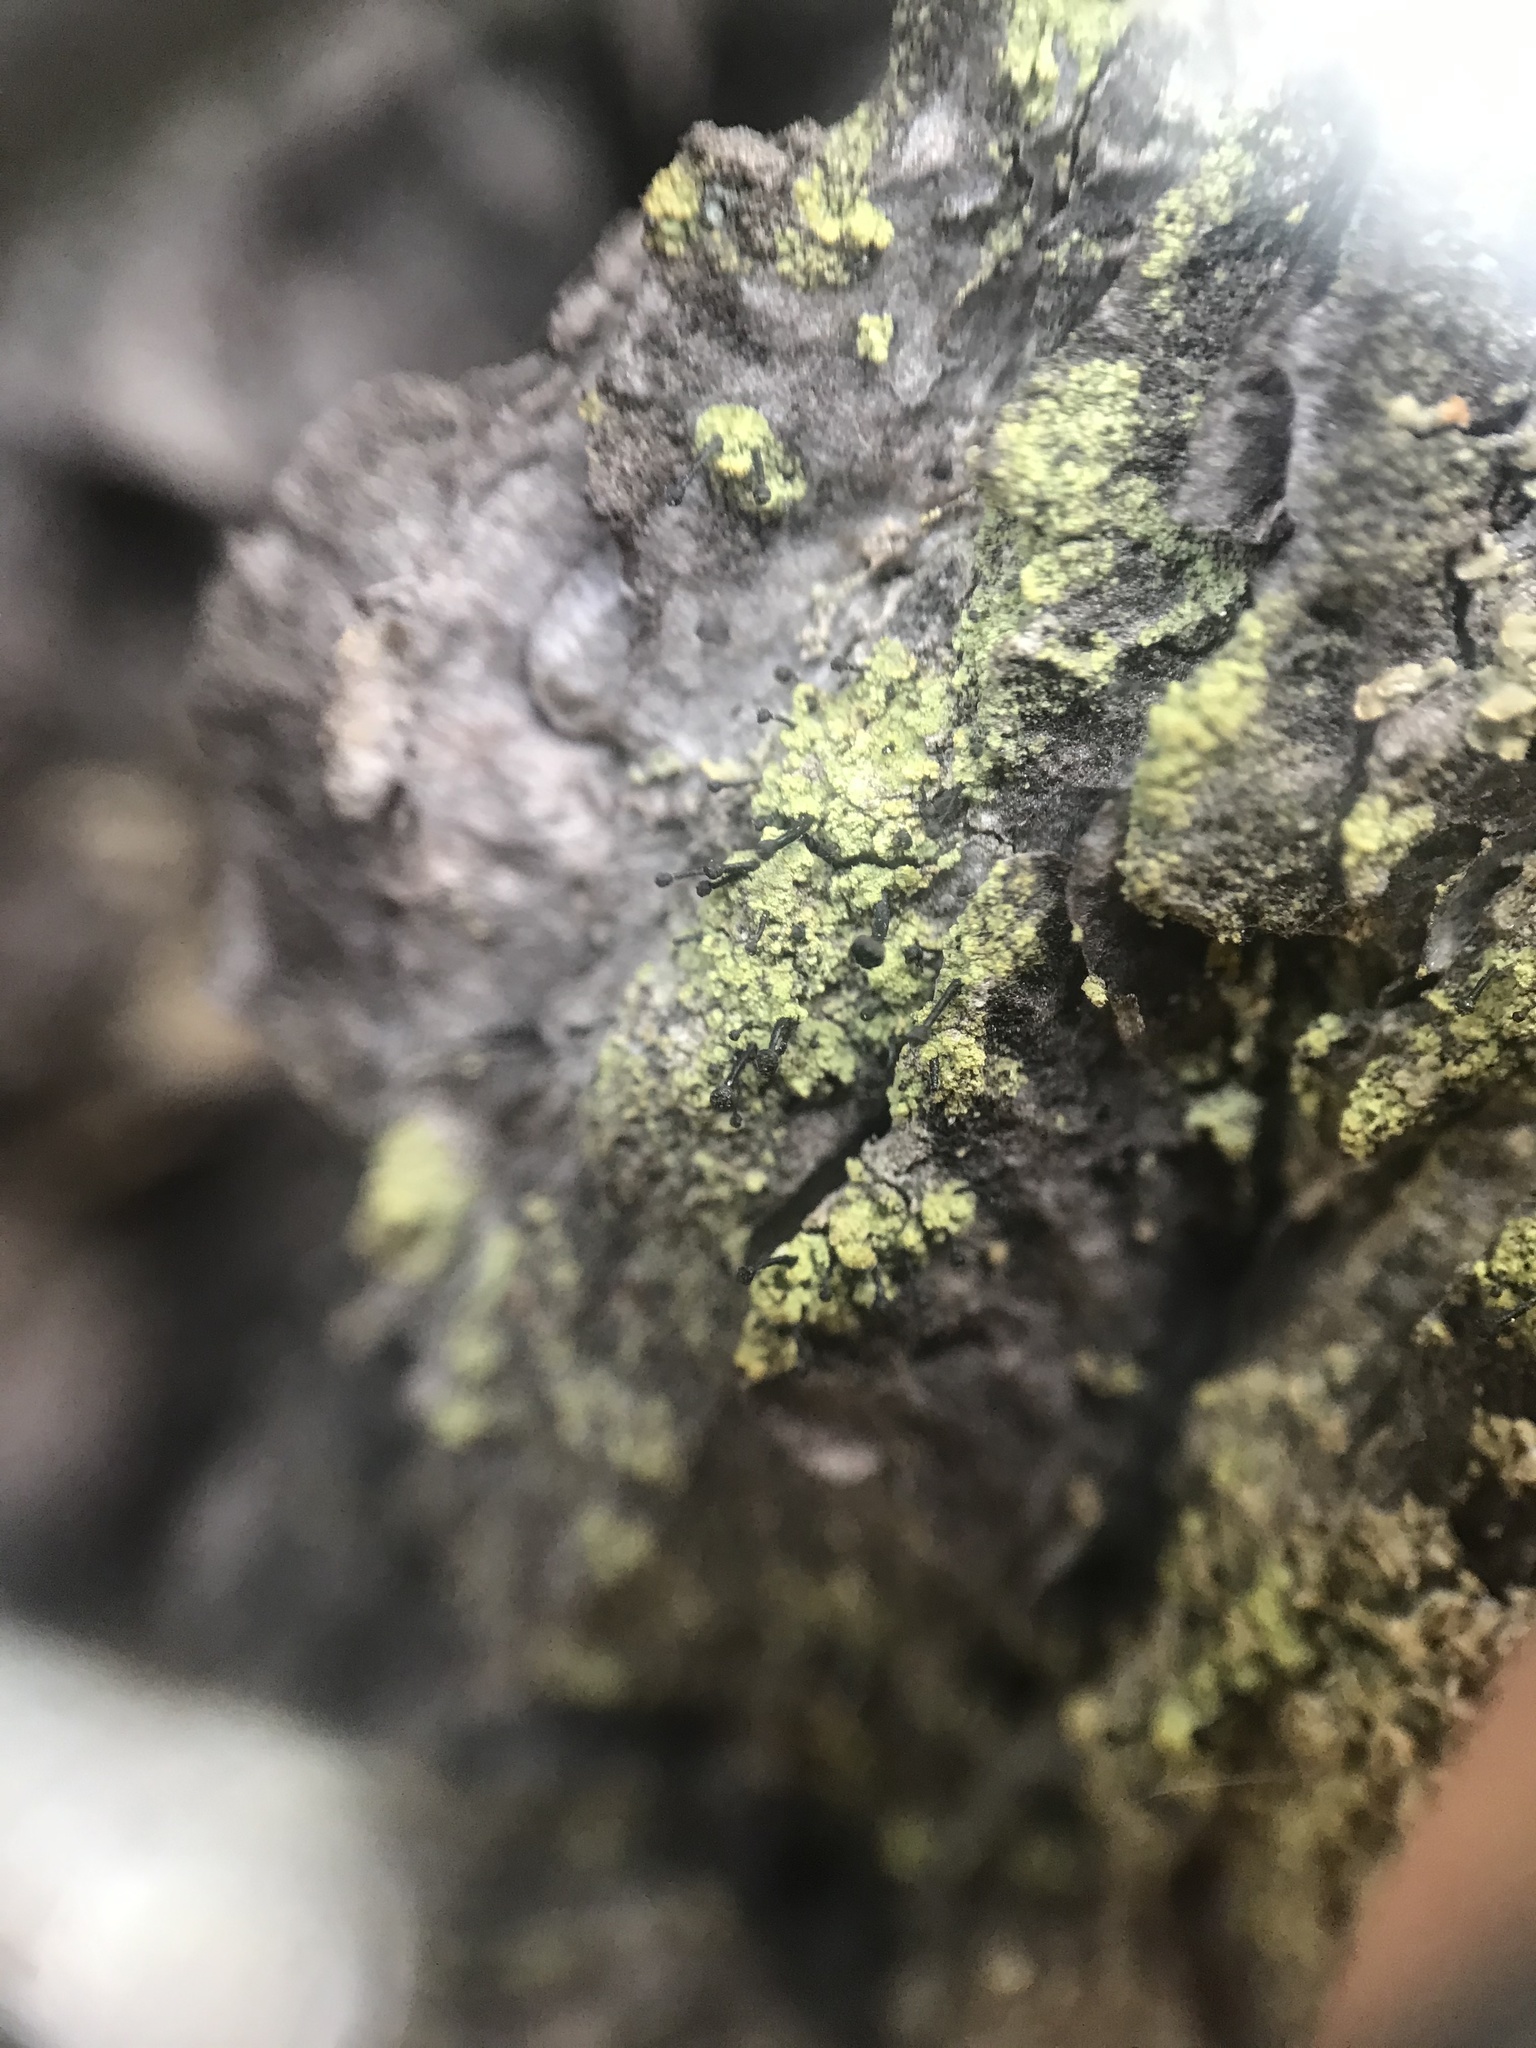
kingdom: Fungi
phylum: Ascomycota
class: Lecanoromycetes
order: Caliciales
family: Caliciaceae
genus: Calicium
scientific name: Calicium viride
